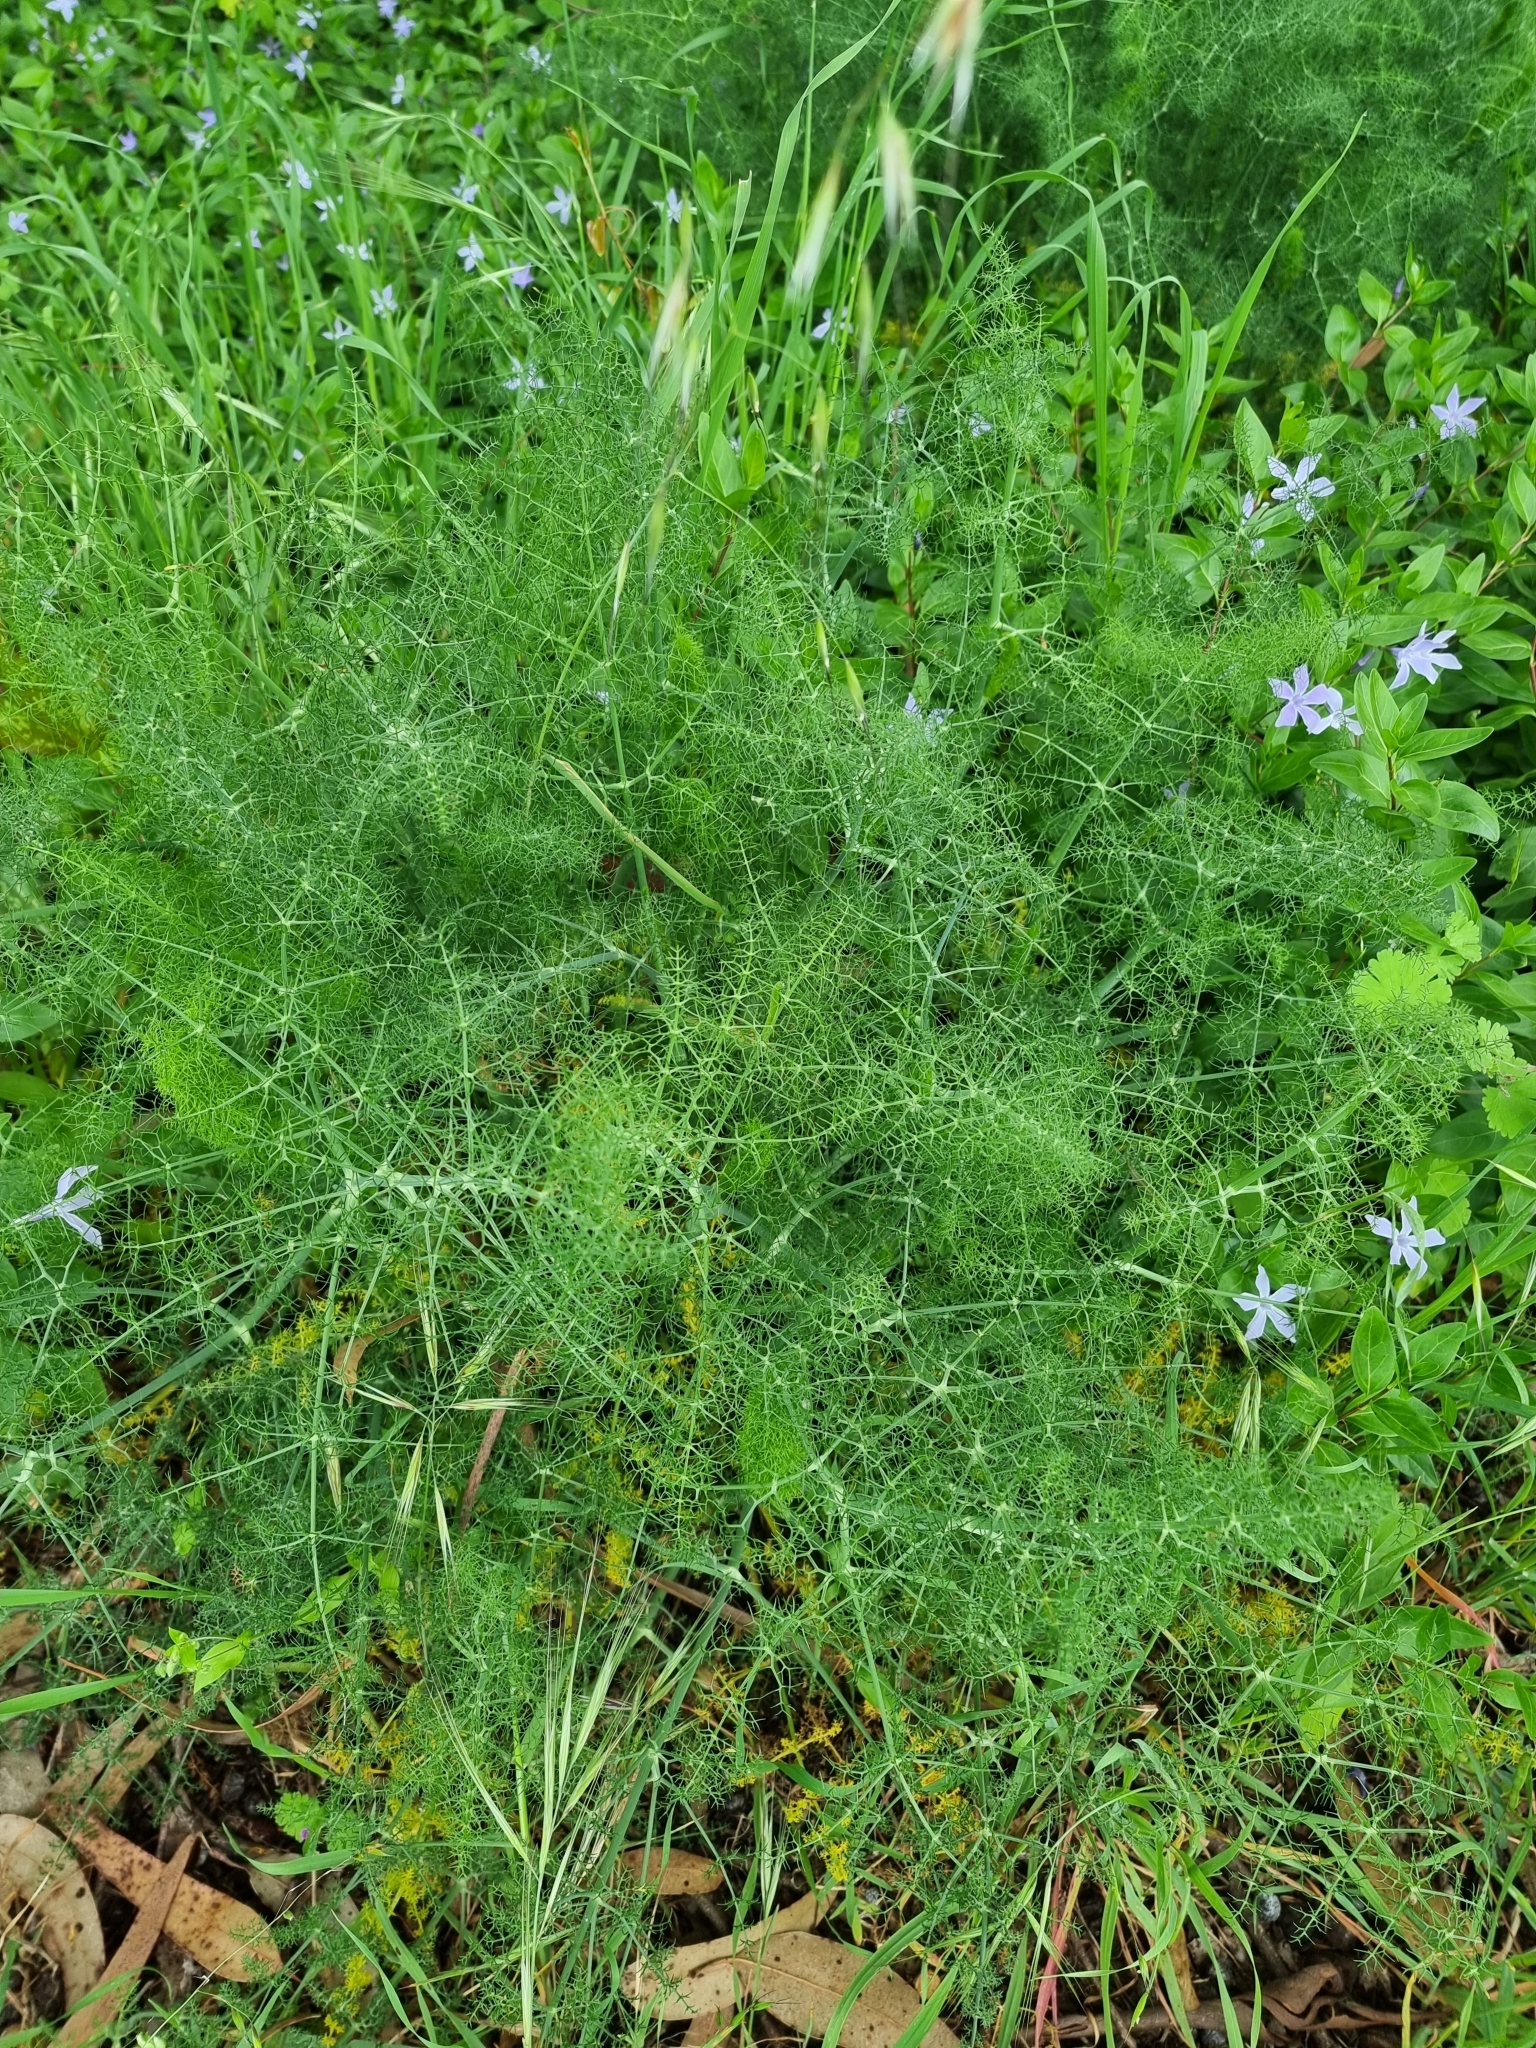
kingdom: Plantae
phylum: Tracheophyta
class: Magnoliopsida
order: Apiales
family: Apiaceae
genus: Foeniculum
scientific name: Foeniculum vulgare
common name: Fennel
